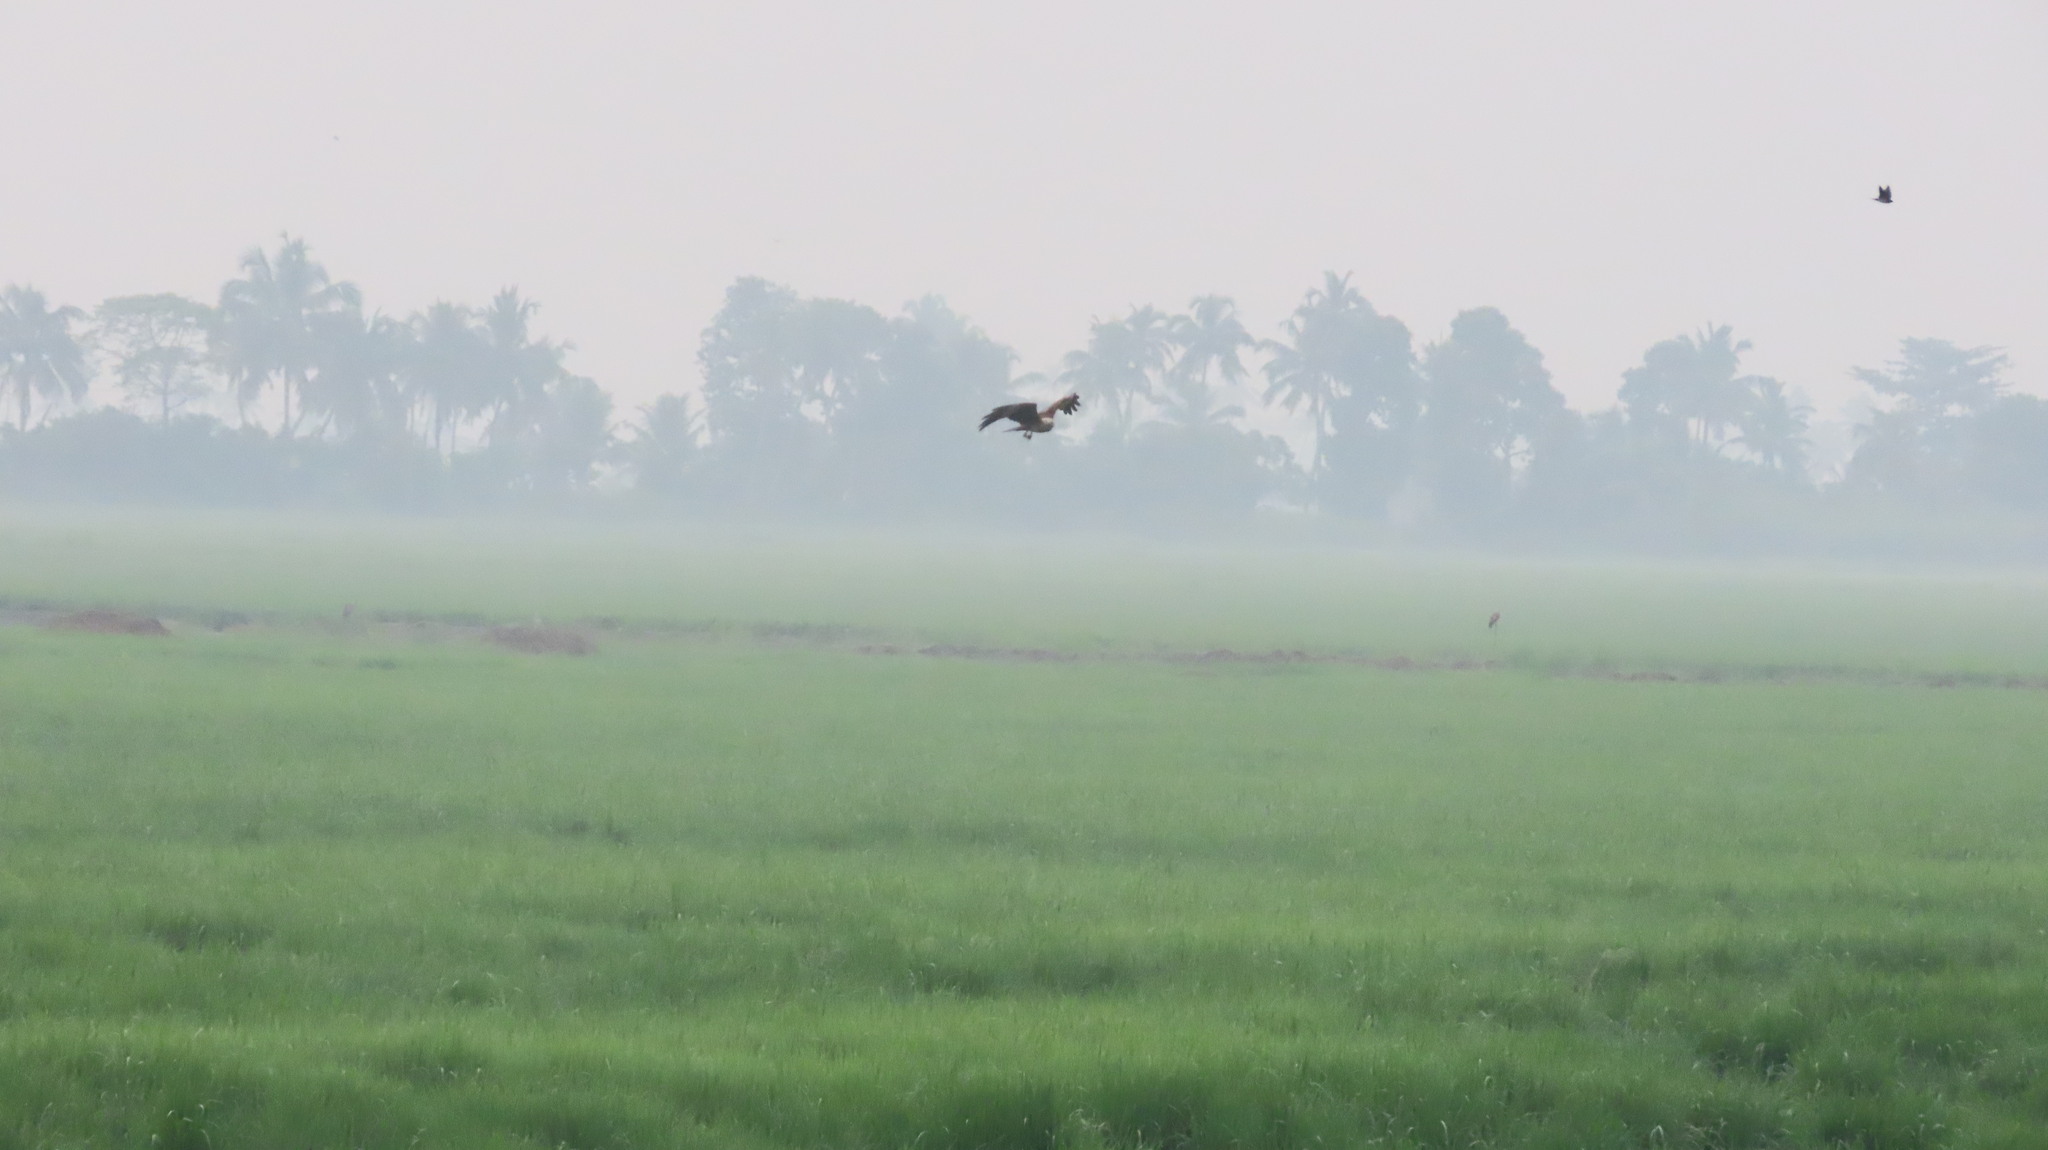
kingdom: Animalia
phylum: Chordata
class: Aves
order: Accipitriformes
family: Accipitridae
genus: Haliastur
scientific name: Haliastur indus
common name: Brahminy kite
